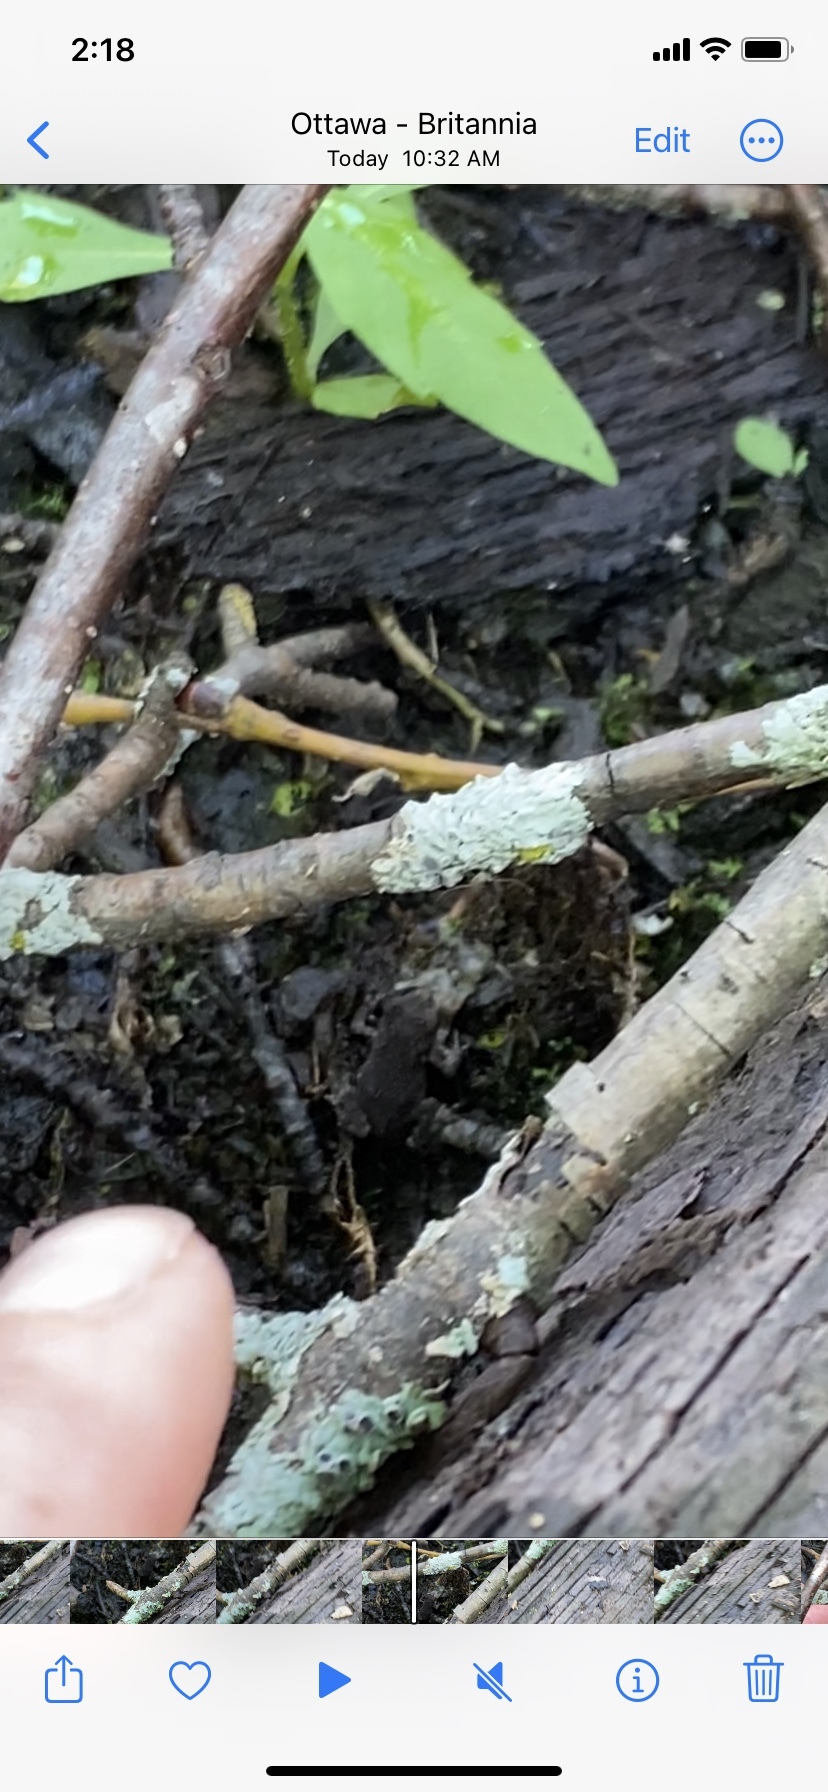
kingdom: Animalia
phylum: Chordata
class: Amphibia
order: Anura
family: Bufonidae
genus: Anaxyrus
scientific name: Anaxyrus americanus
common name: American toad
